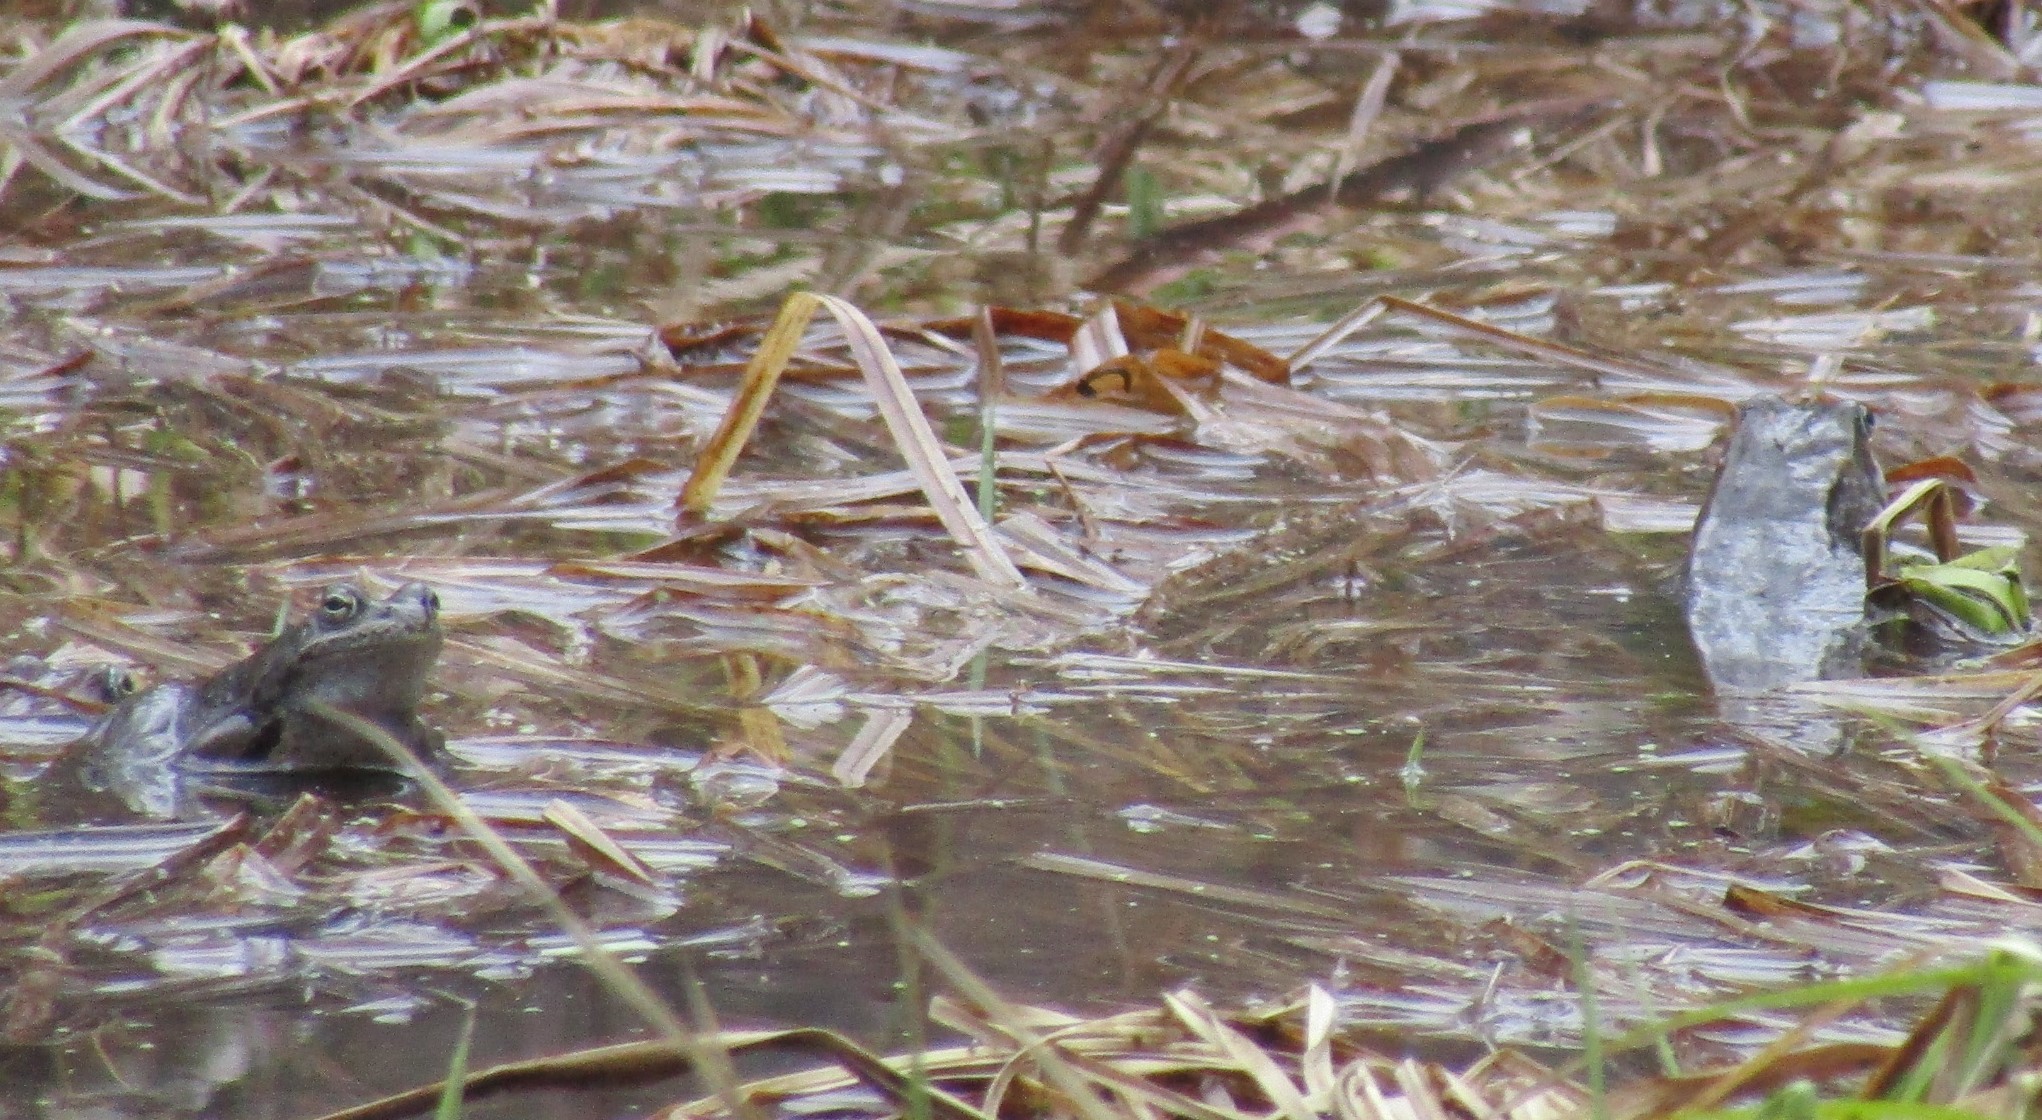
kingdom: Animalia
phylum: Chordata
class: Amphibia
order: Anura
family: Ranidae
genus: Rana
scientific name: Rana arvalis
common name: Moor frog
